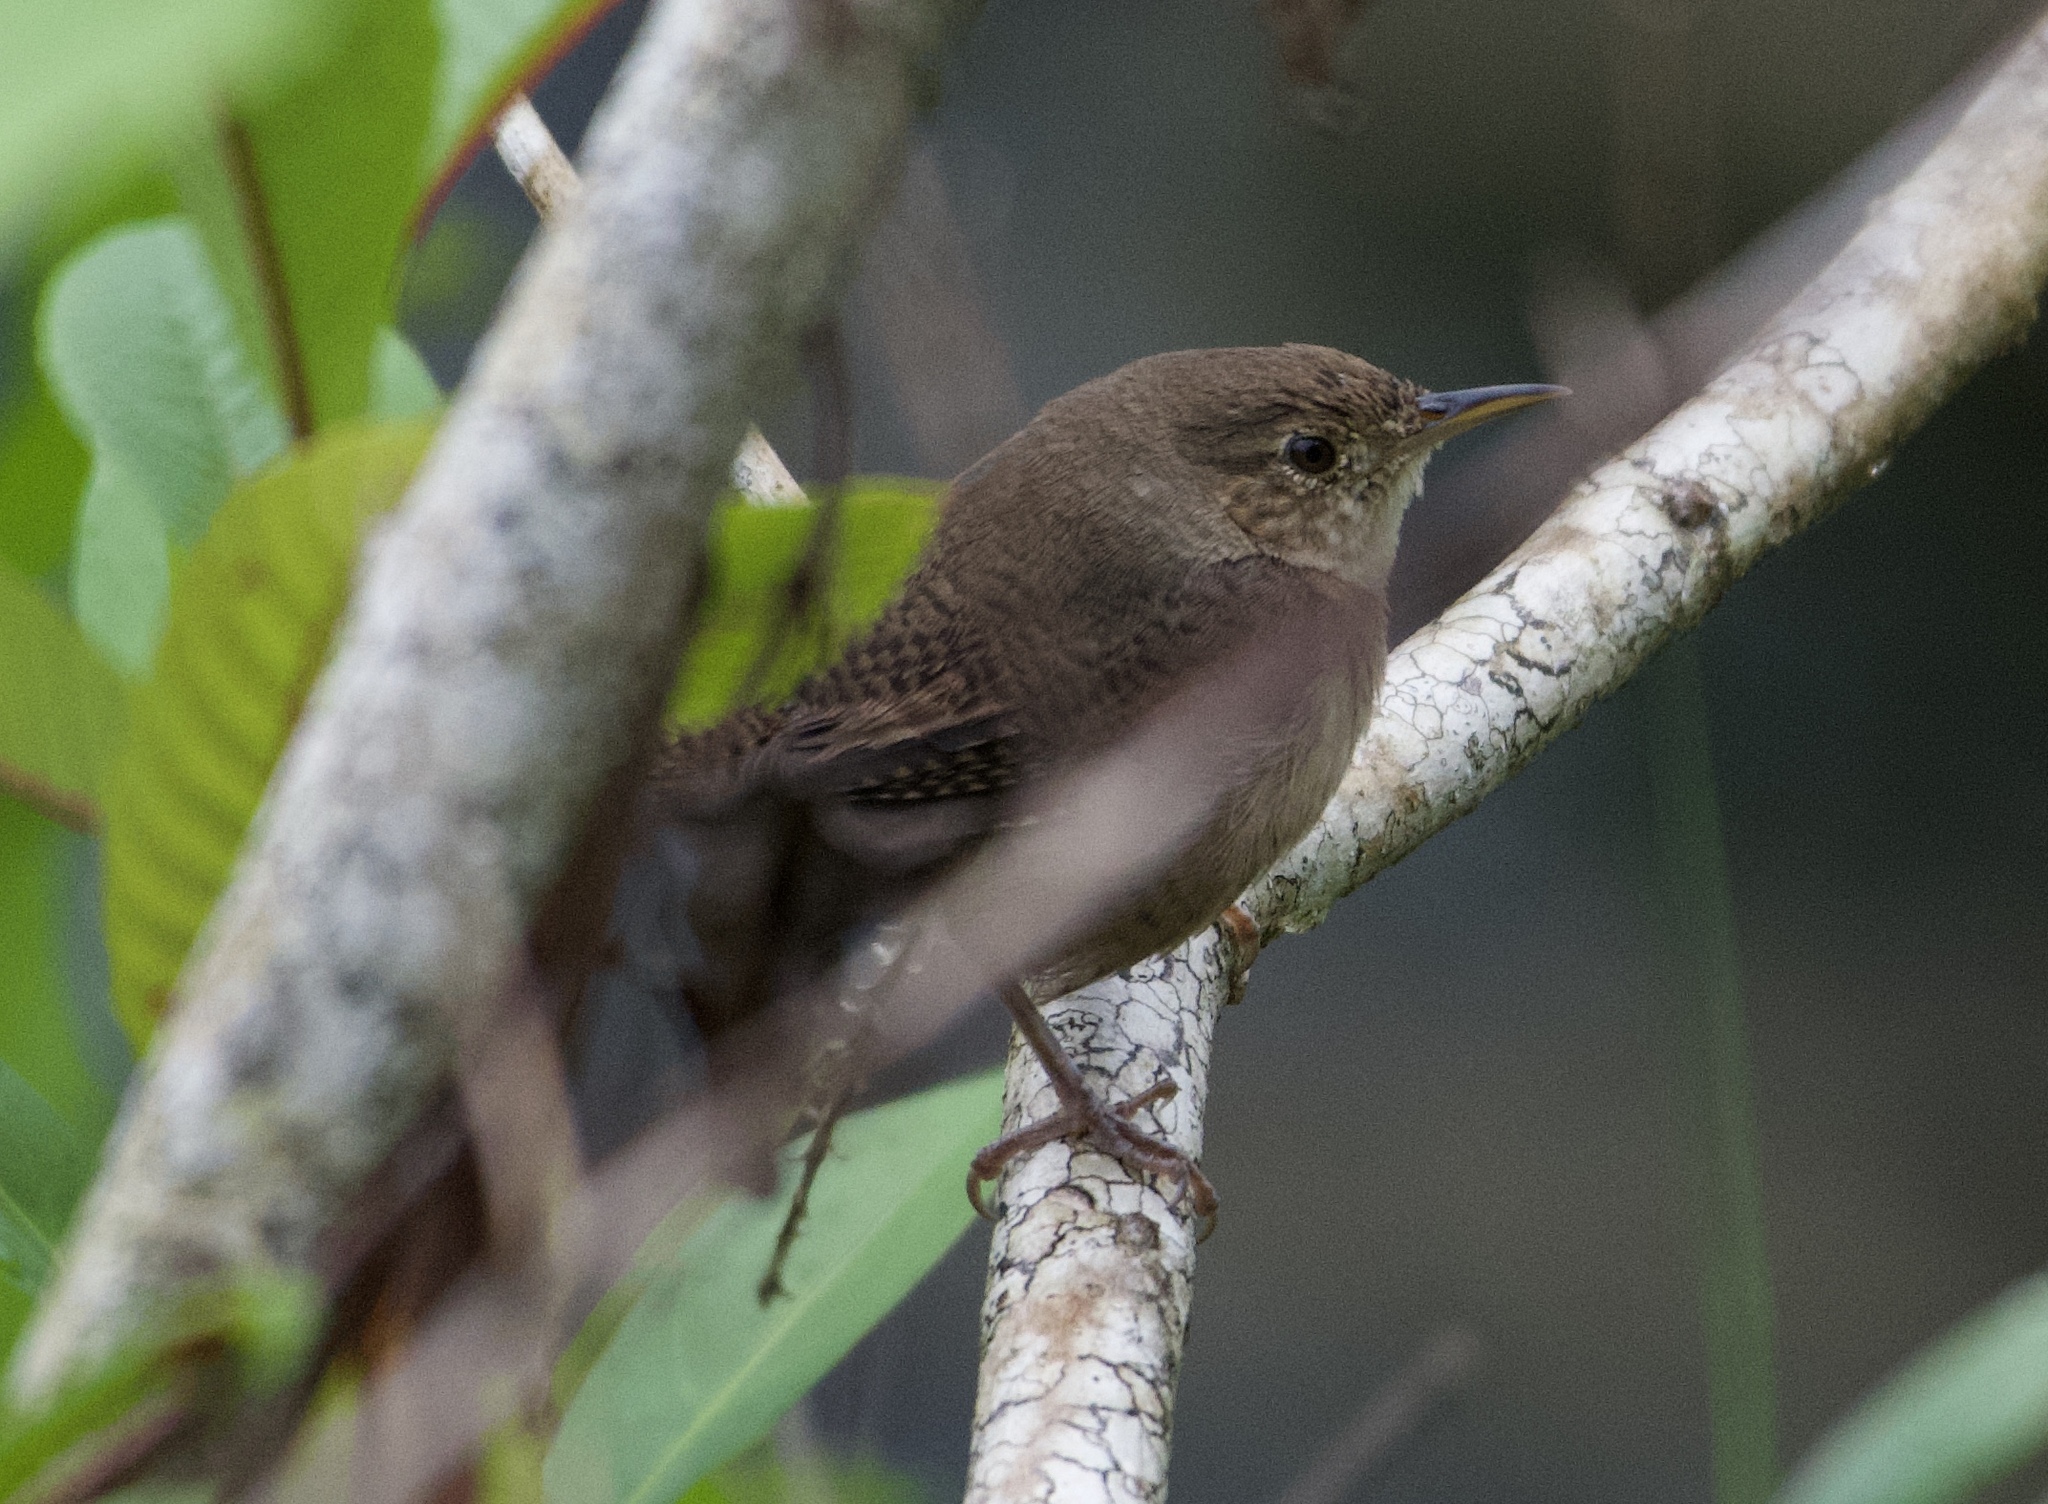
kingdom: Animalia
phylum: Chordata
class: Aves
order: Passeriformes
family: Troglodytidae
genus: Troglodytes
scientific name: Troglodytes aedon
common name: House wren
